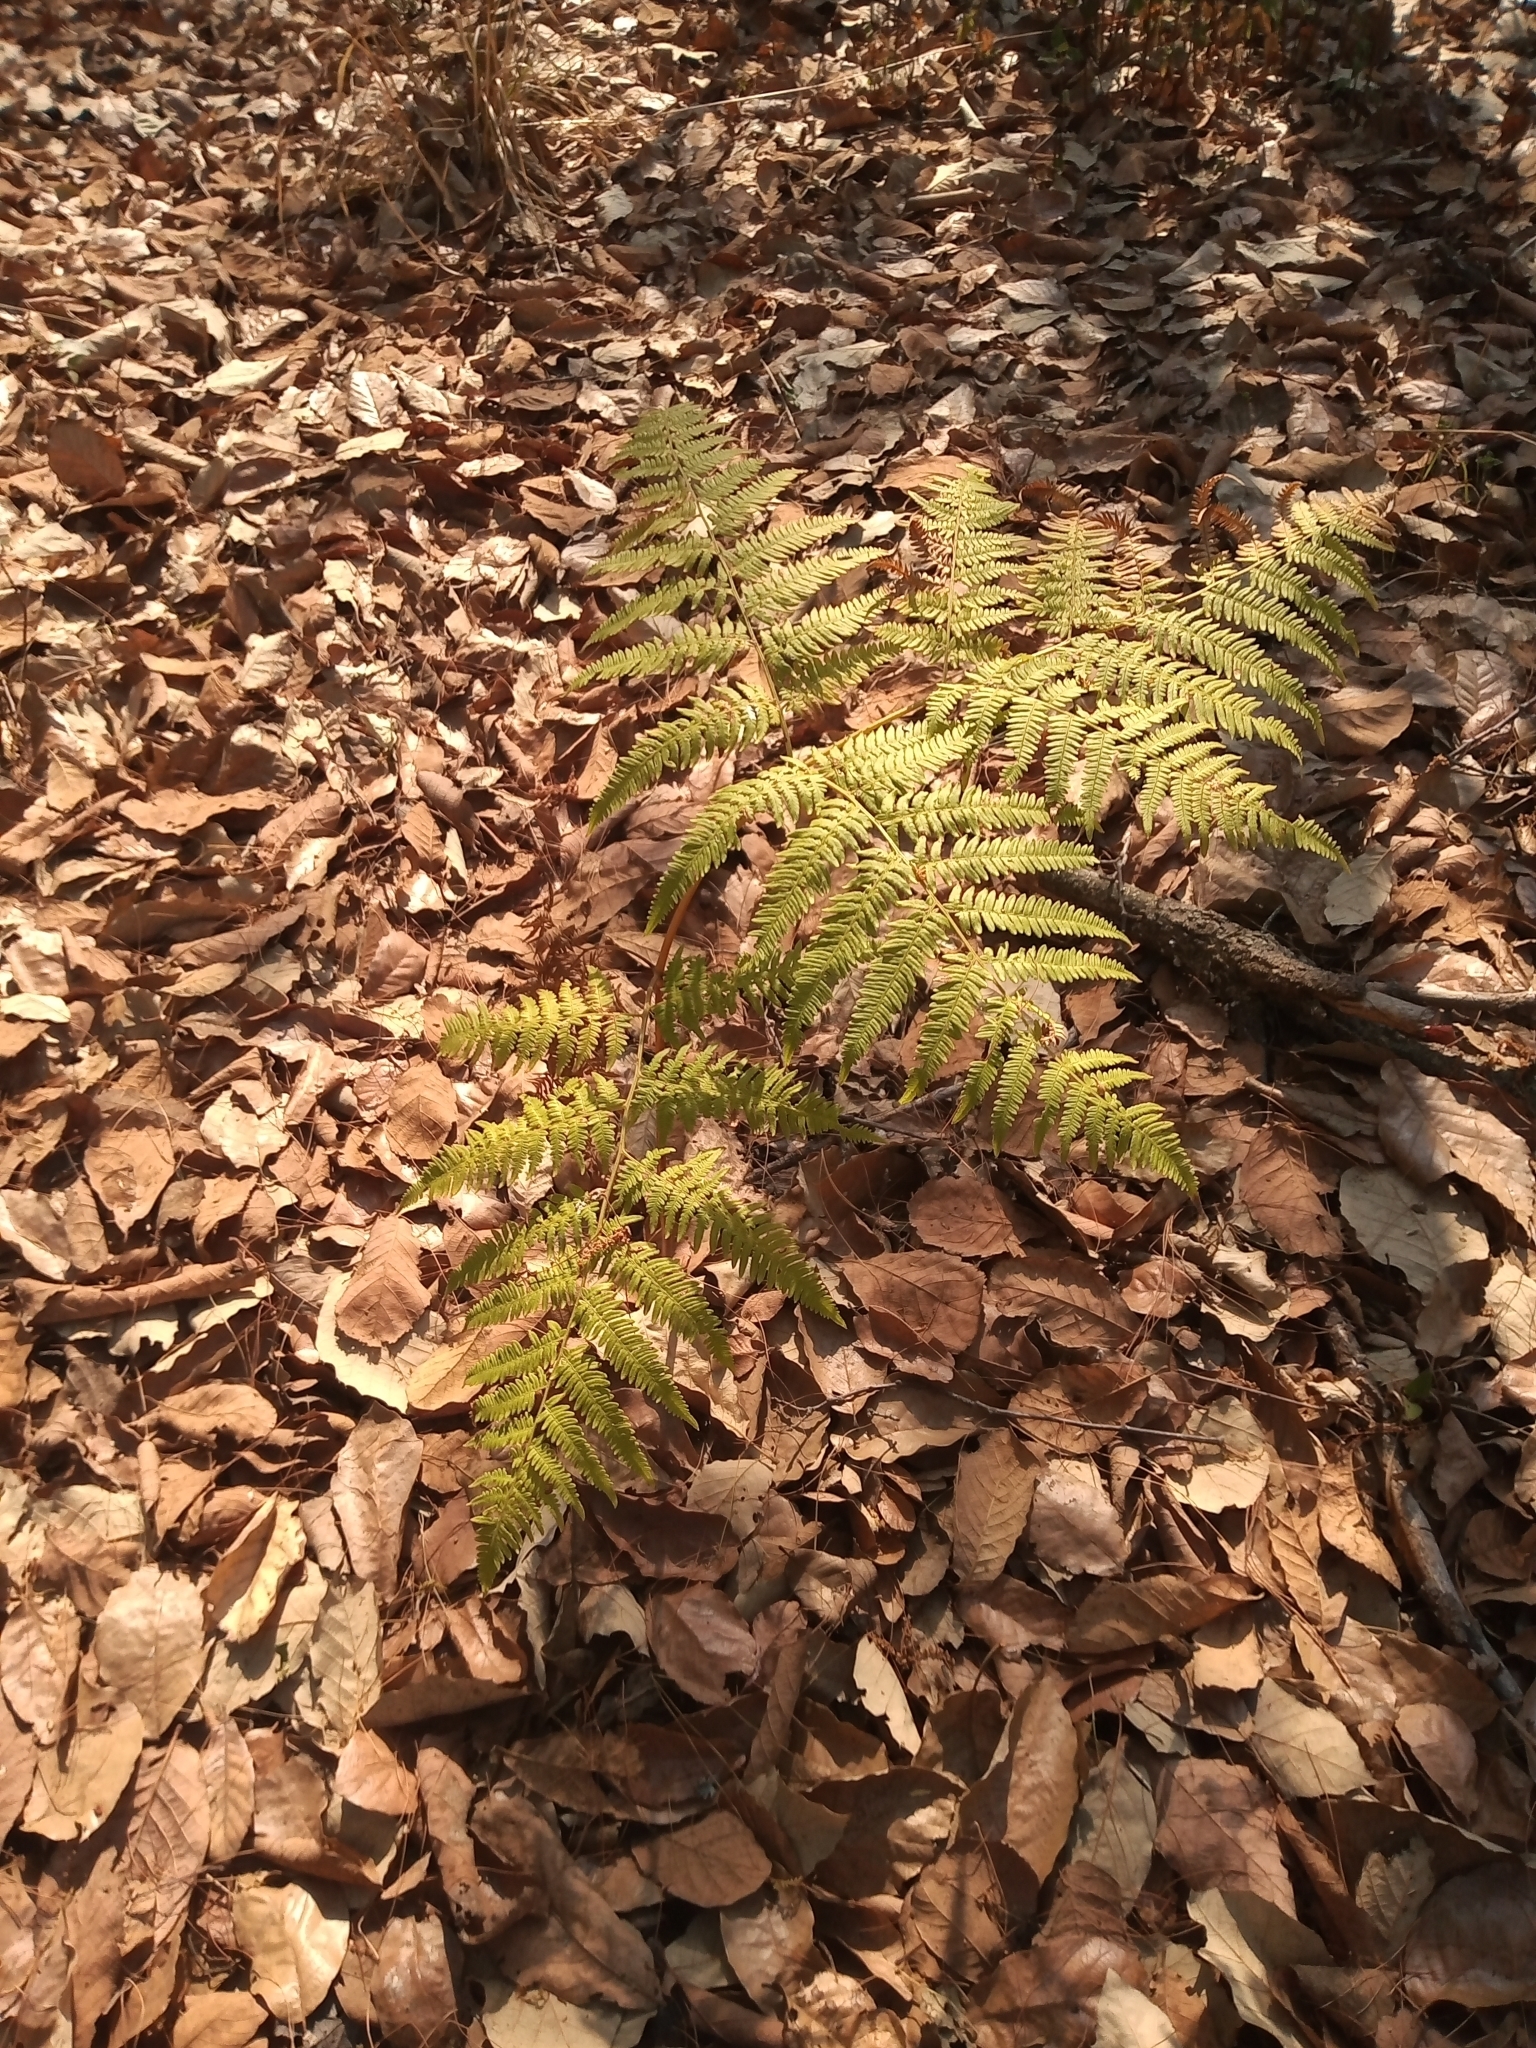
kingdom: Plantae
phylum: Tracheophyta
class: Polypodiopsida
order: Polypodiales
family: Dennstaedtiaceae
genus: Pteridium
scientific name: Pteridium aquilinum
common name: Bracken
